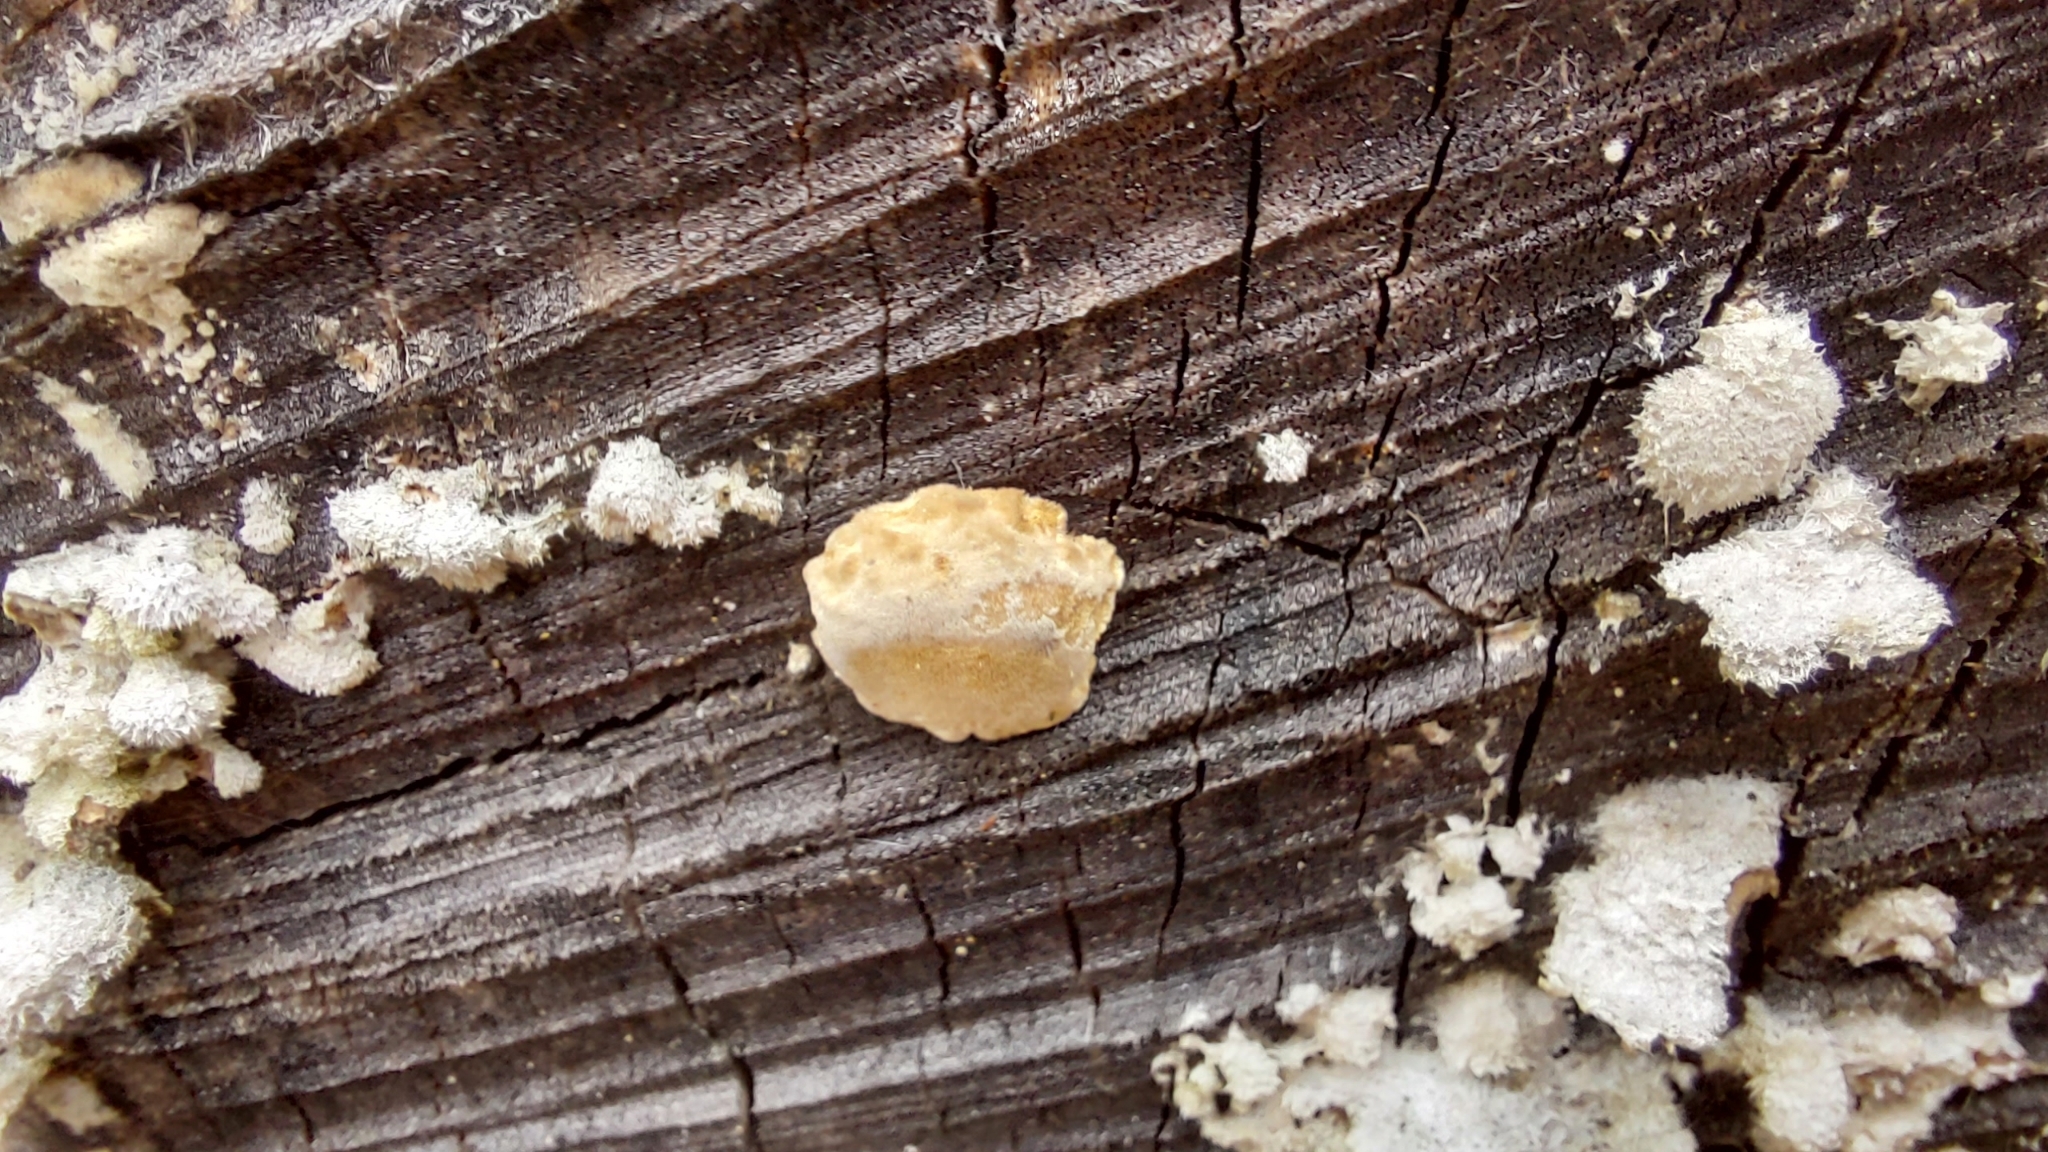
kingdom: Fungi
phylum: Basidiomycota
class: Agaricomycetes
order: Agaricales
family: Schizophyllaceae
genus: Schizophyllum
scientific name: Schizophyllum commune
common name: Common porecrust
